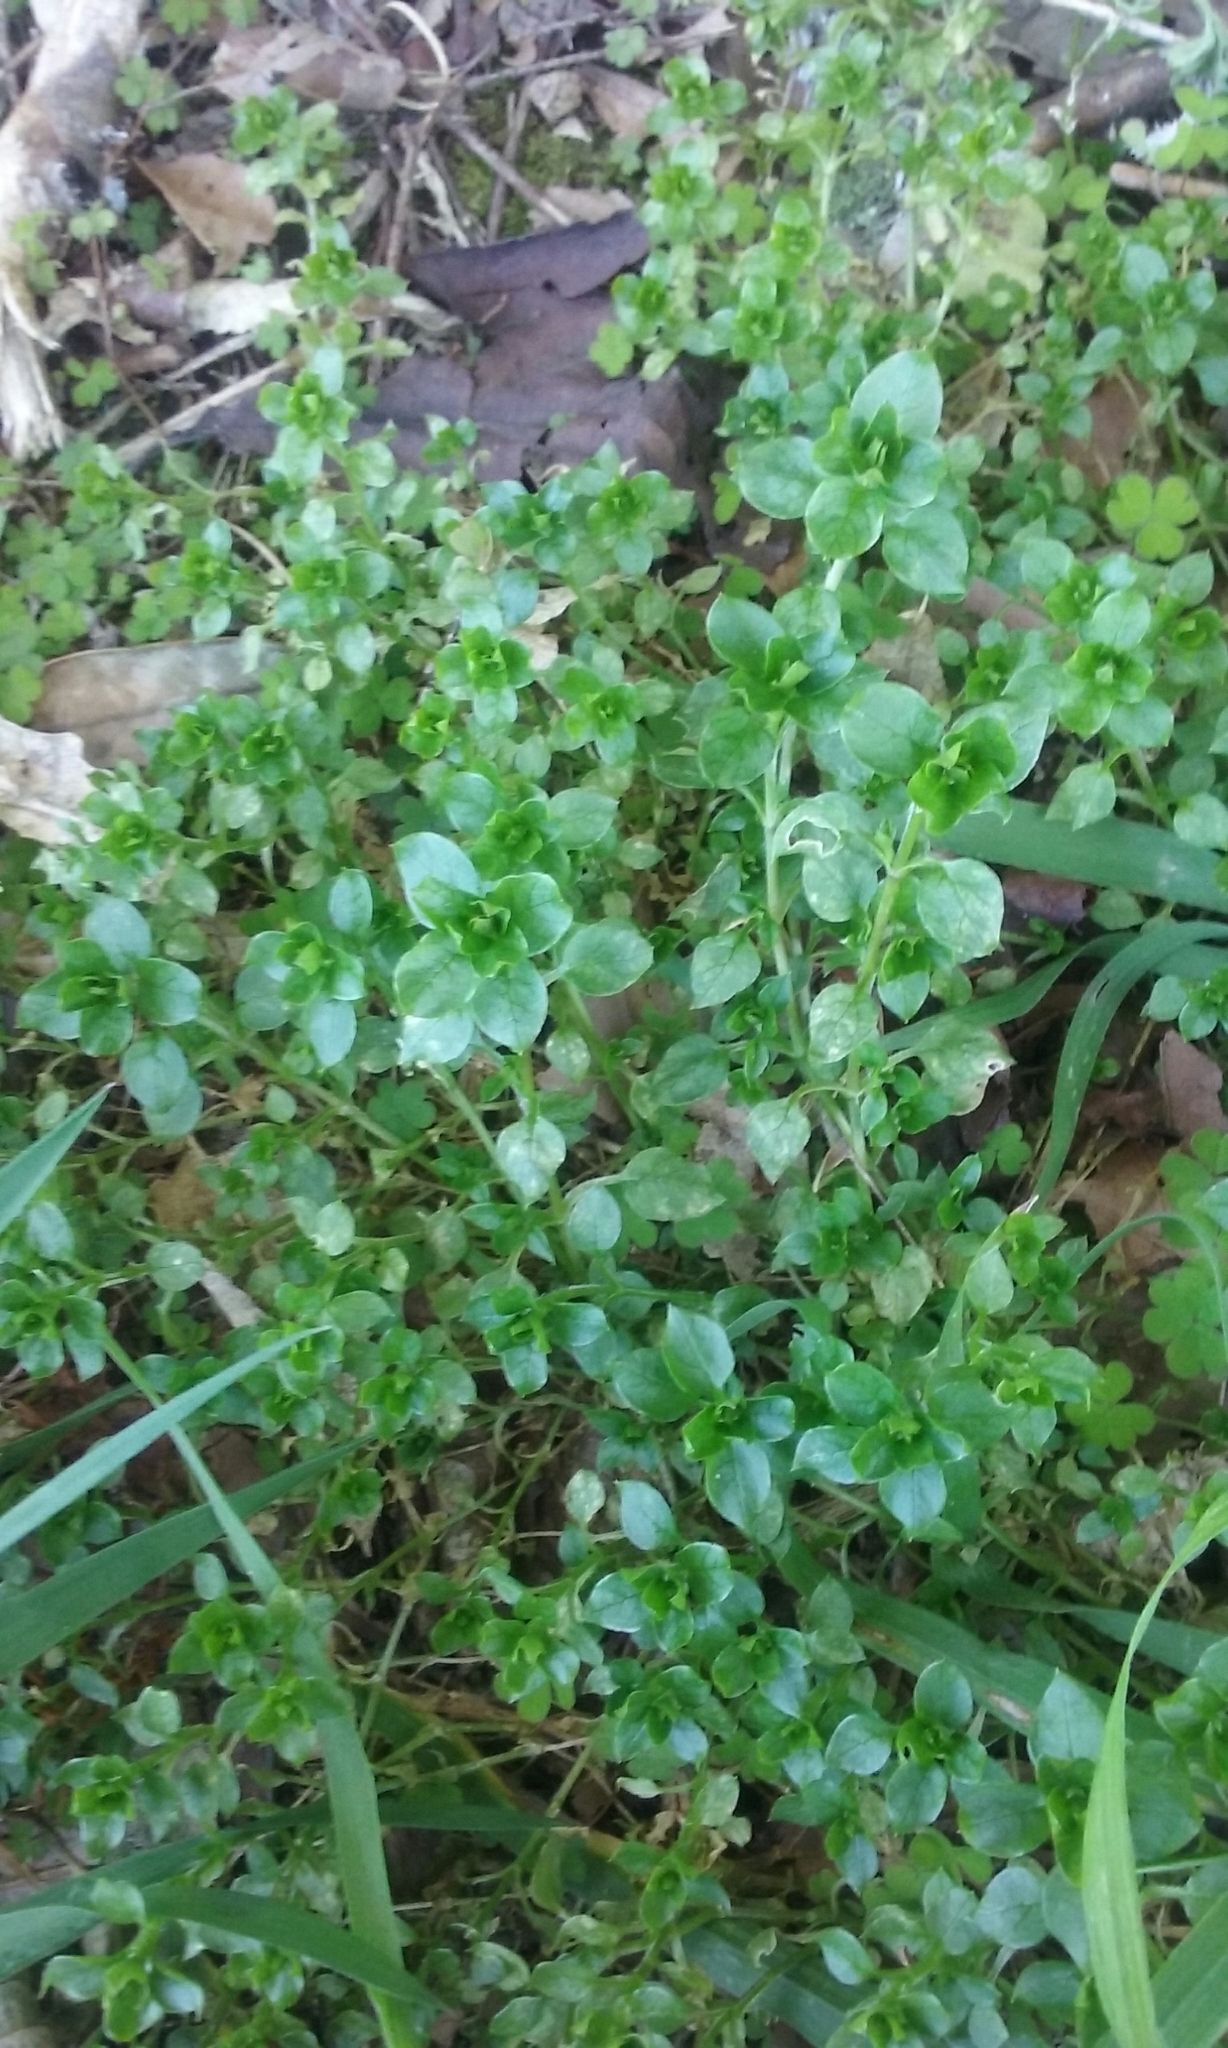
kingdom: Plantae
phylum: Tracheophyta
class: Magnoliopsida
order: Caryophyllales
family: Caryophyllaceae
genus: Stellaria
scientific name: Stellaria media
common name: Common chickweed
